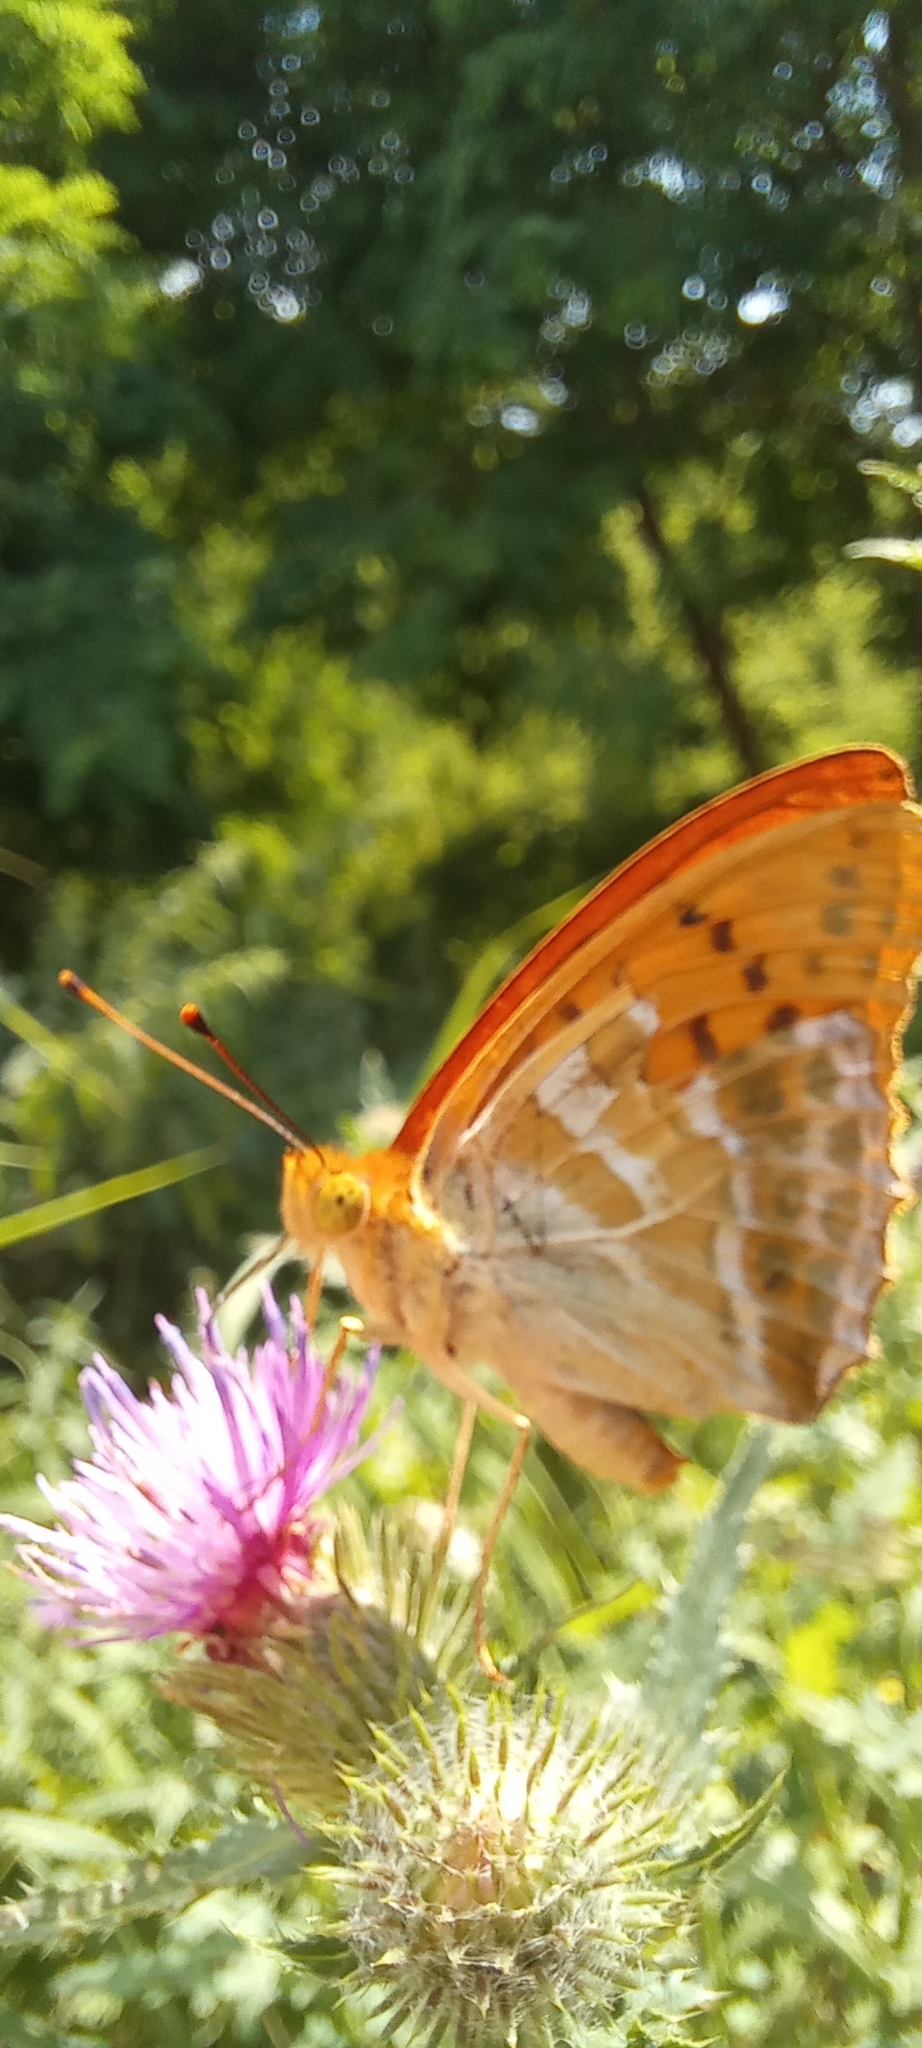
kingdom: Animalia
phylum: Arthropoda
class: Insecta
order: Lepidoptera
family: Nymphalidae
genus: Argynnis
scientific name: Argynnis paphia
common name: Silver-washed fritillary
